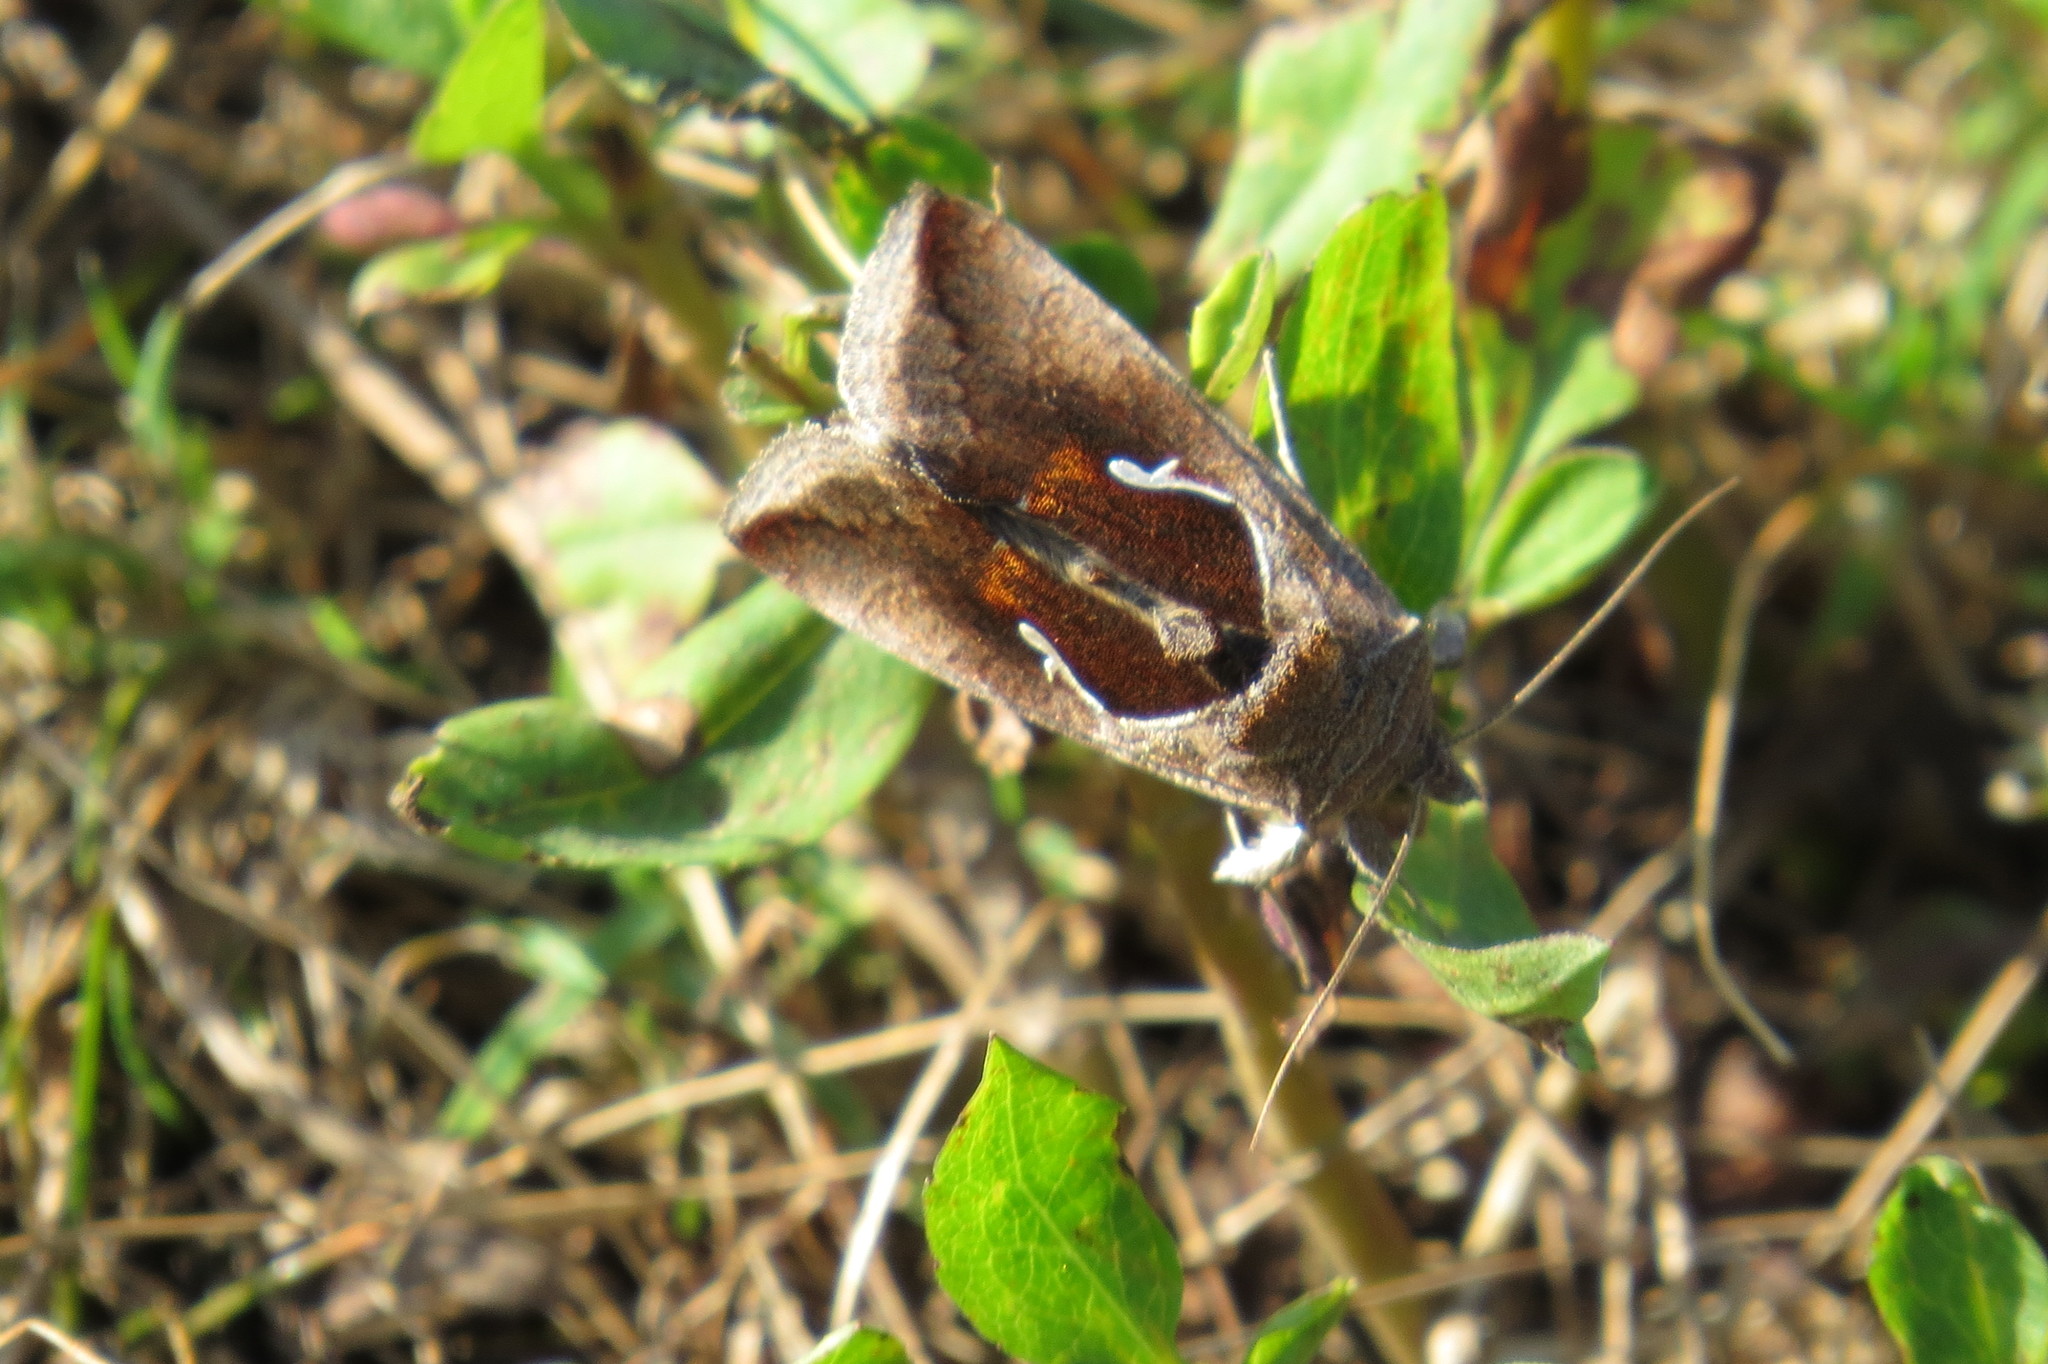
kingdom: Animalia
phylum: Arthropoda
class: Insecta
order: Lepidoptera
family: Notodontidae
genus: Pheosidea
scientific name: Pheosidea elegans
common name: Elegant prominent
